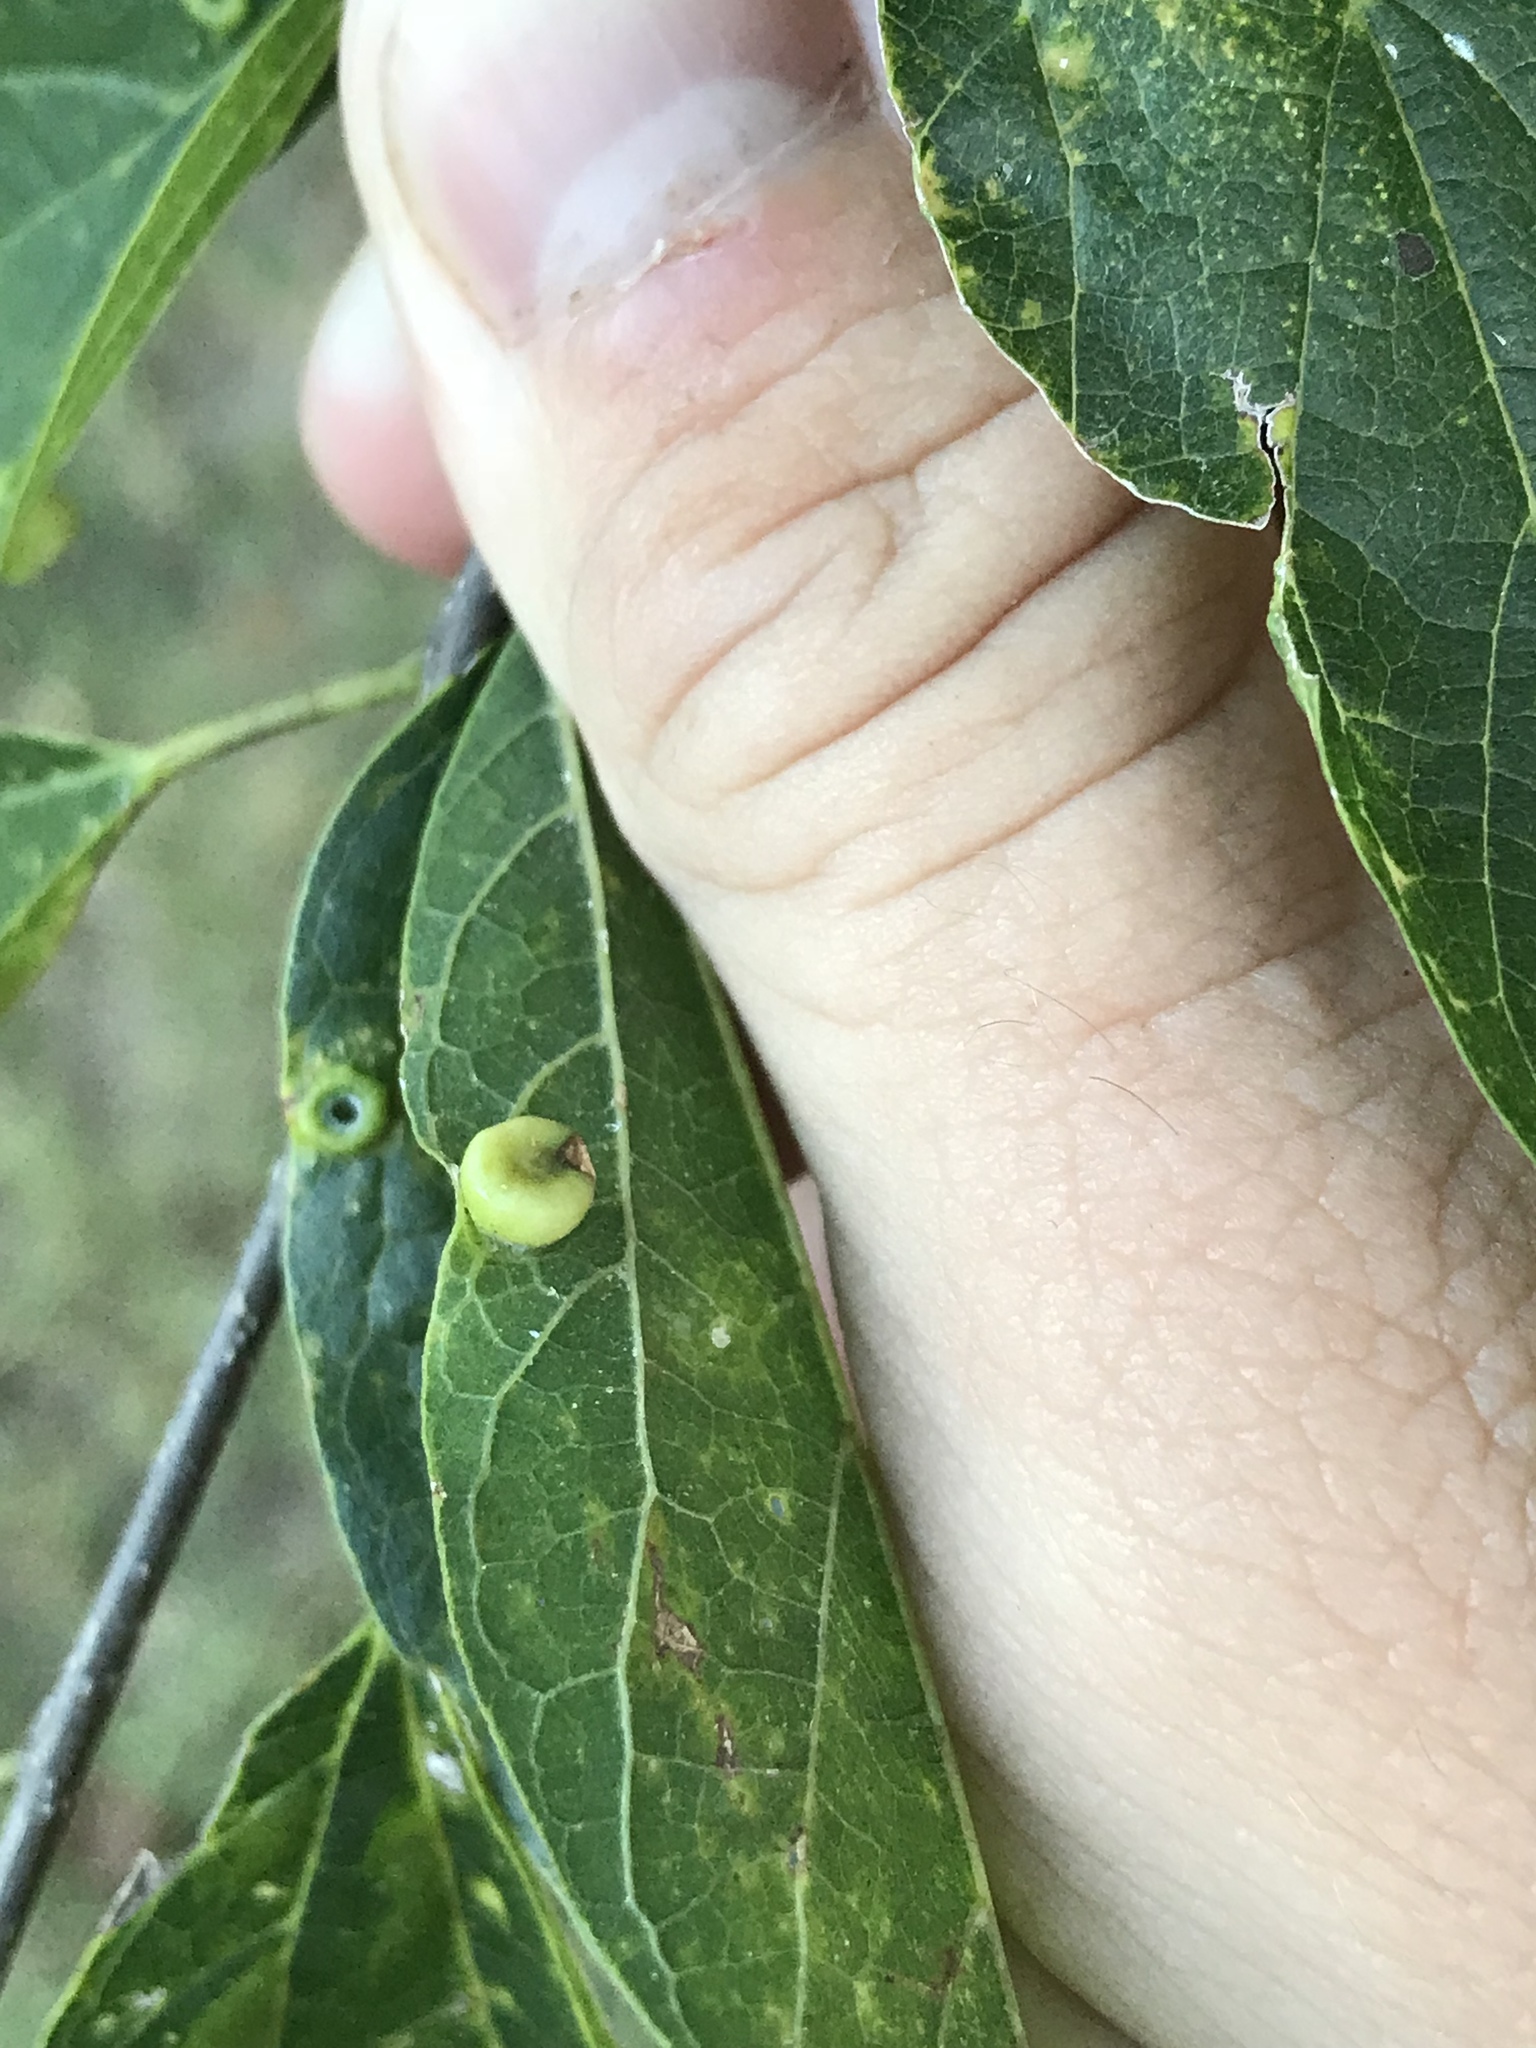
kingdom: Animalia
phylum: Arthropoda
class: Insecta
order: Hemiptera
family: Aphalaridae
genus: Pachypsylla
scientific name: Pachypsylla celtidismamma
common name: Hackberry nipplegall psyllid
